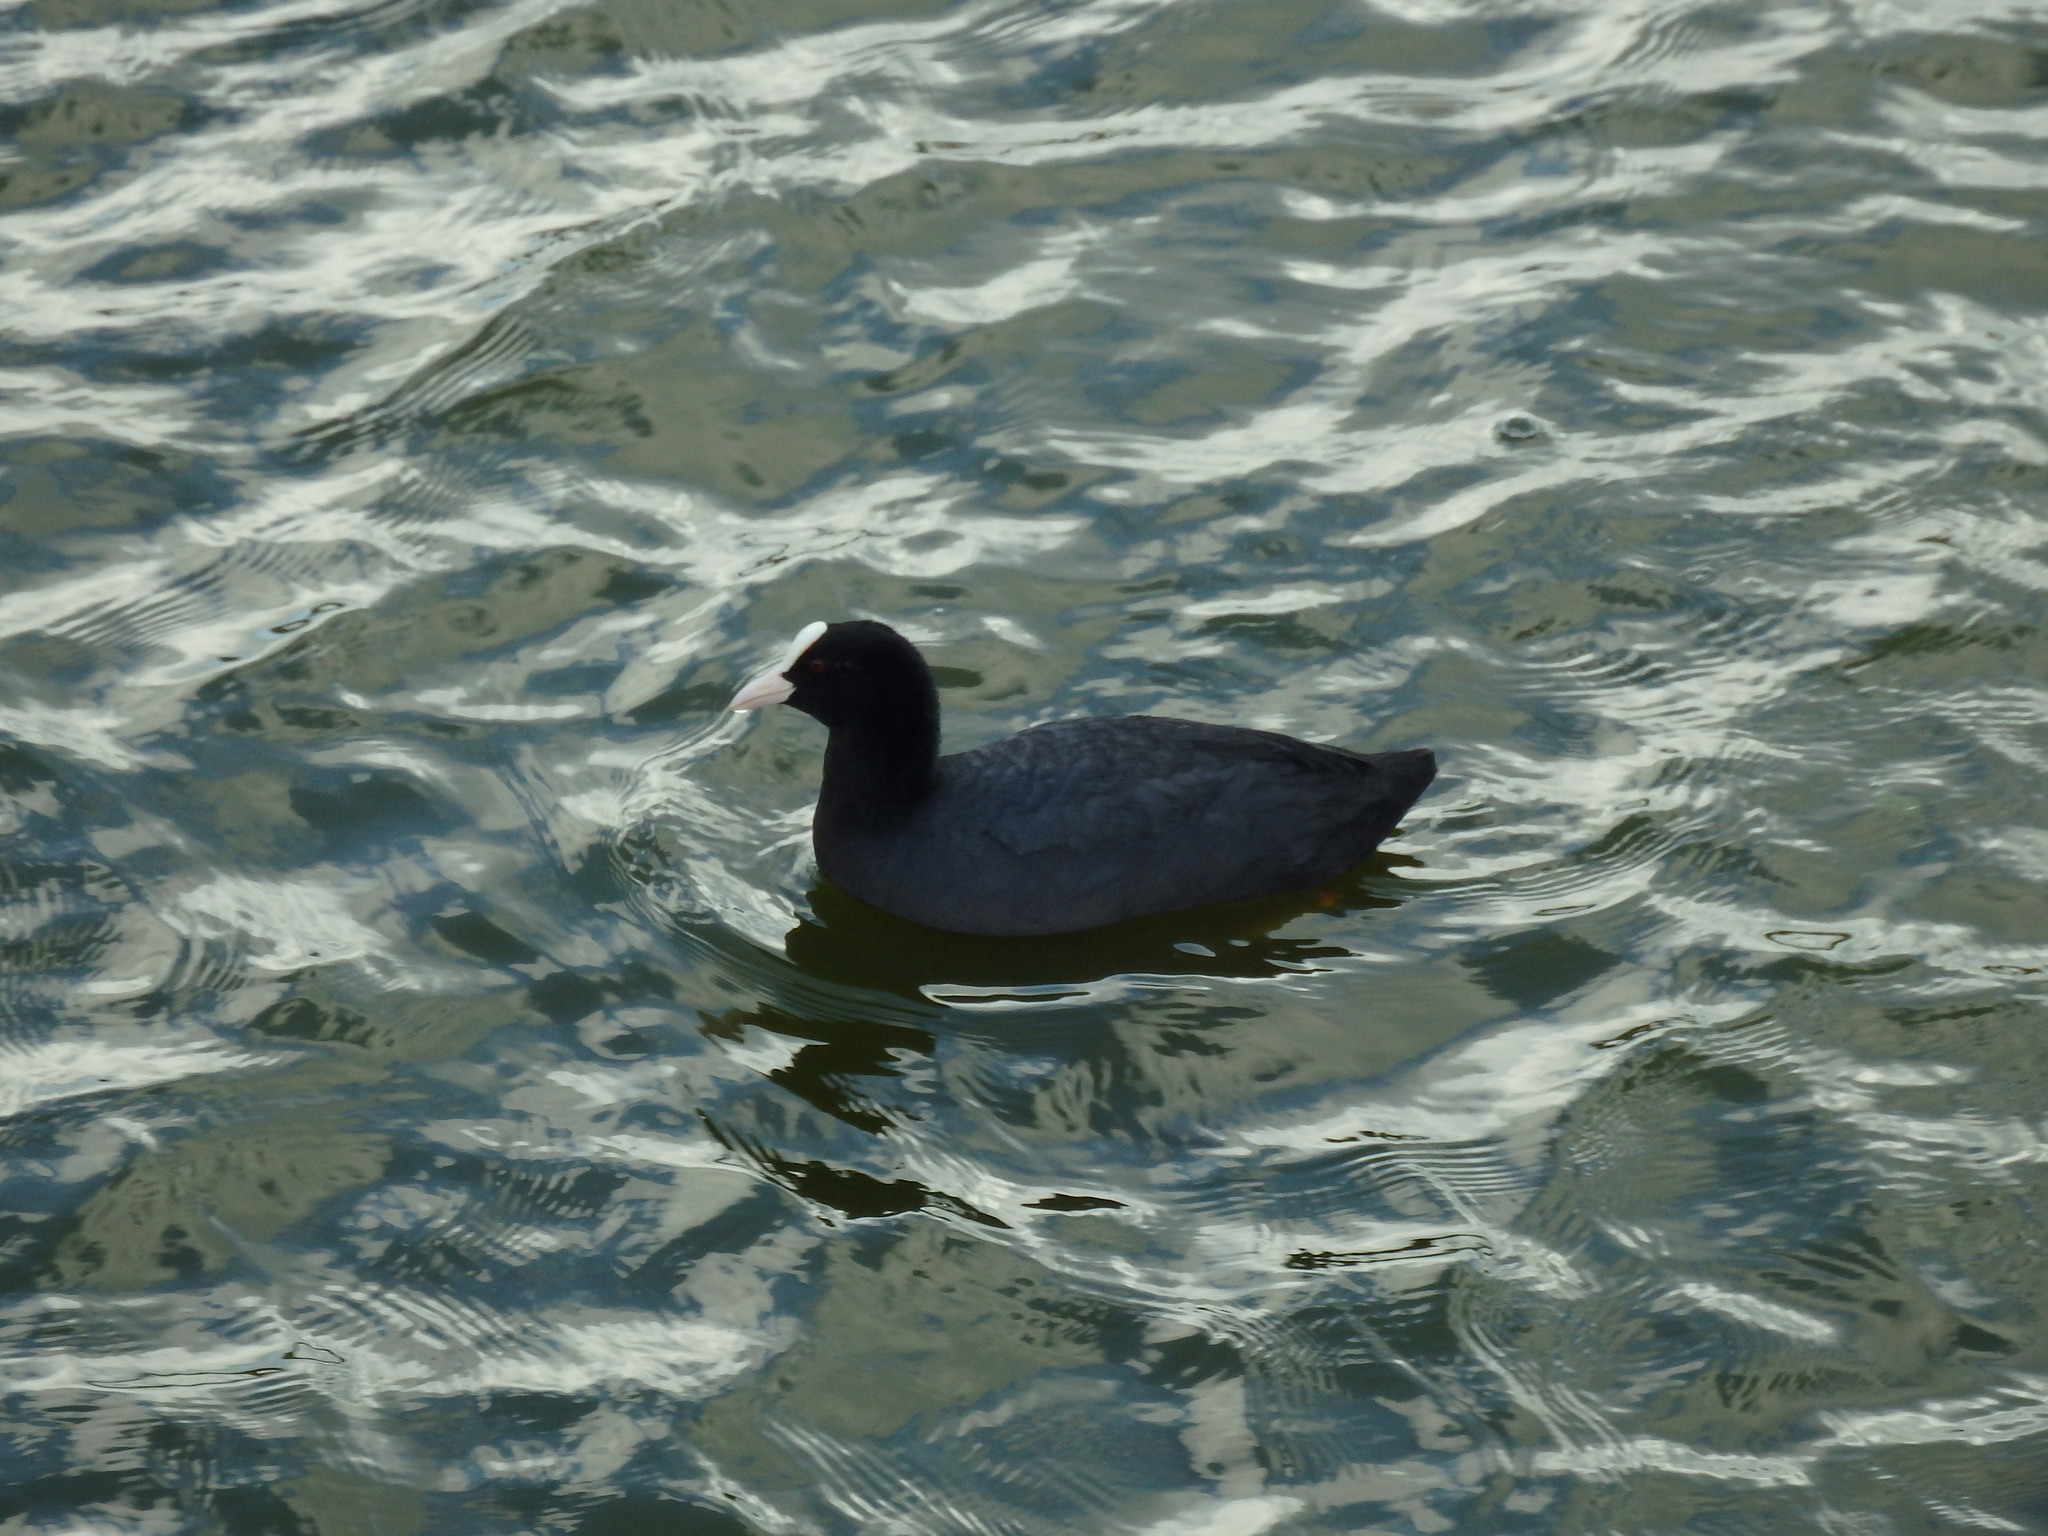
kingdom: Animalia
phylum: Chordata
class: Aves
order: Gruiformes
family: Rallidae
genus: Fulica
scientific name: Fulica atra
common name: Eurasian coot
